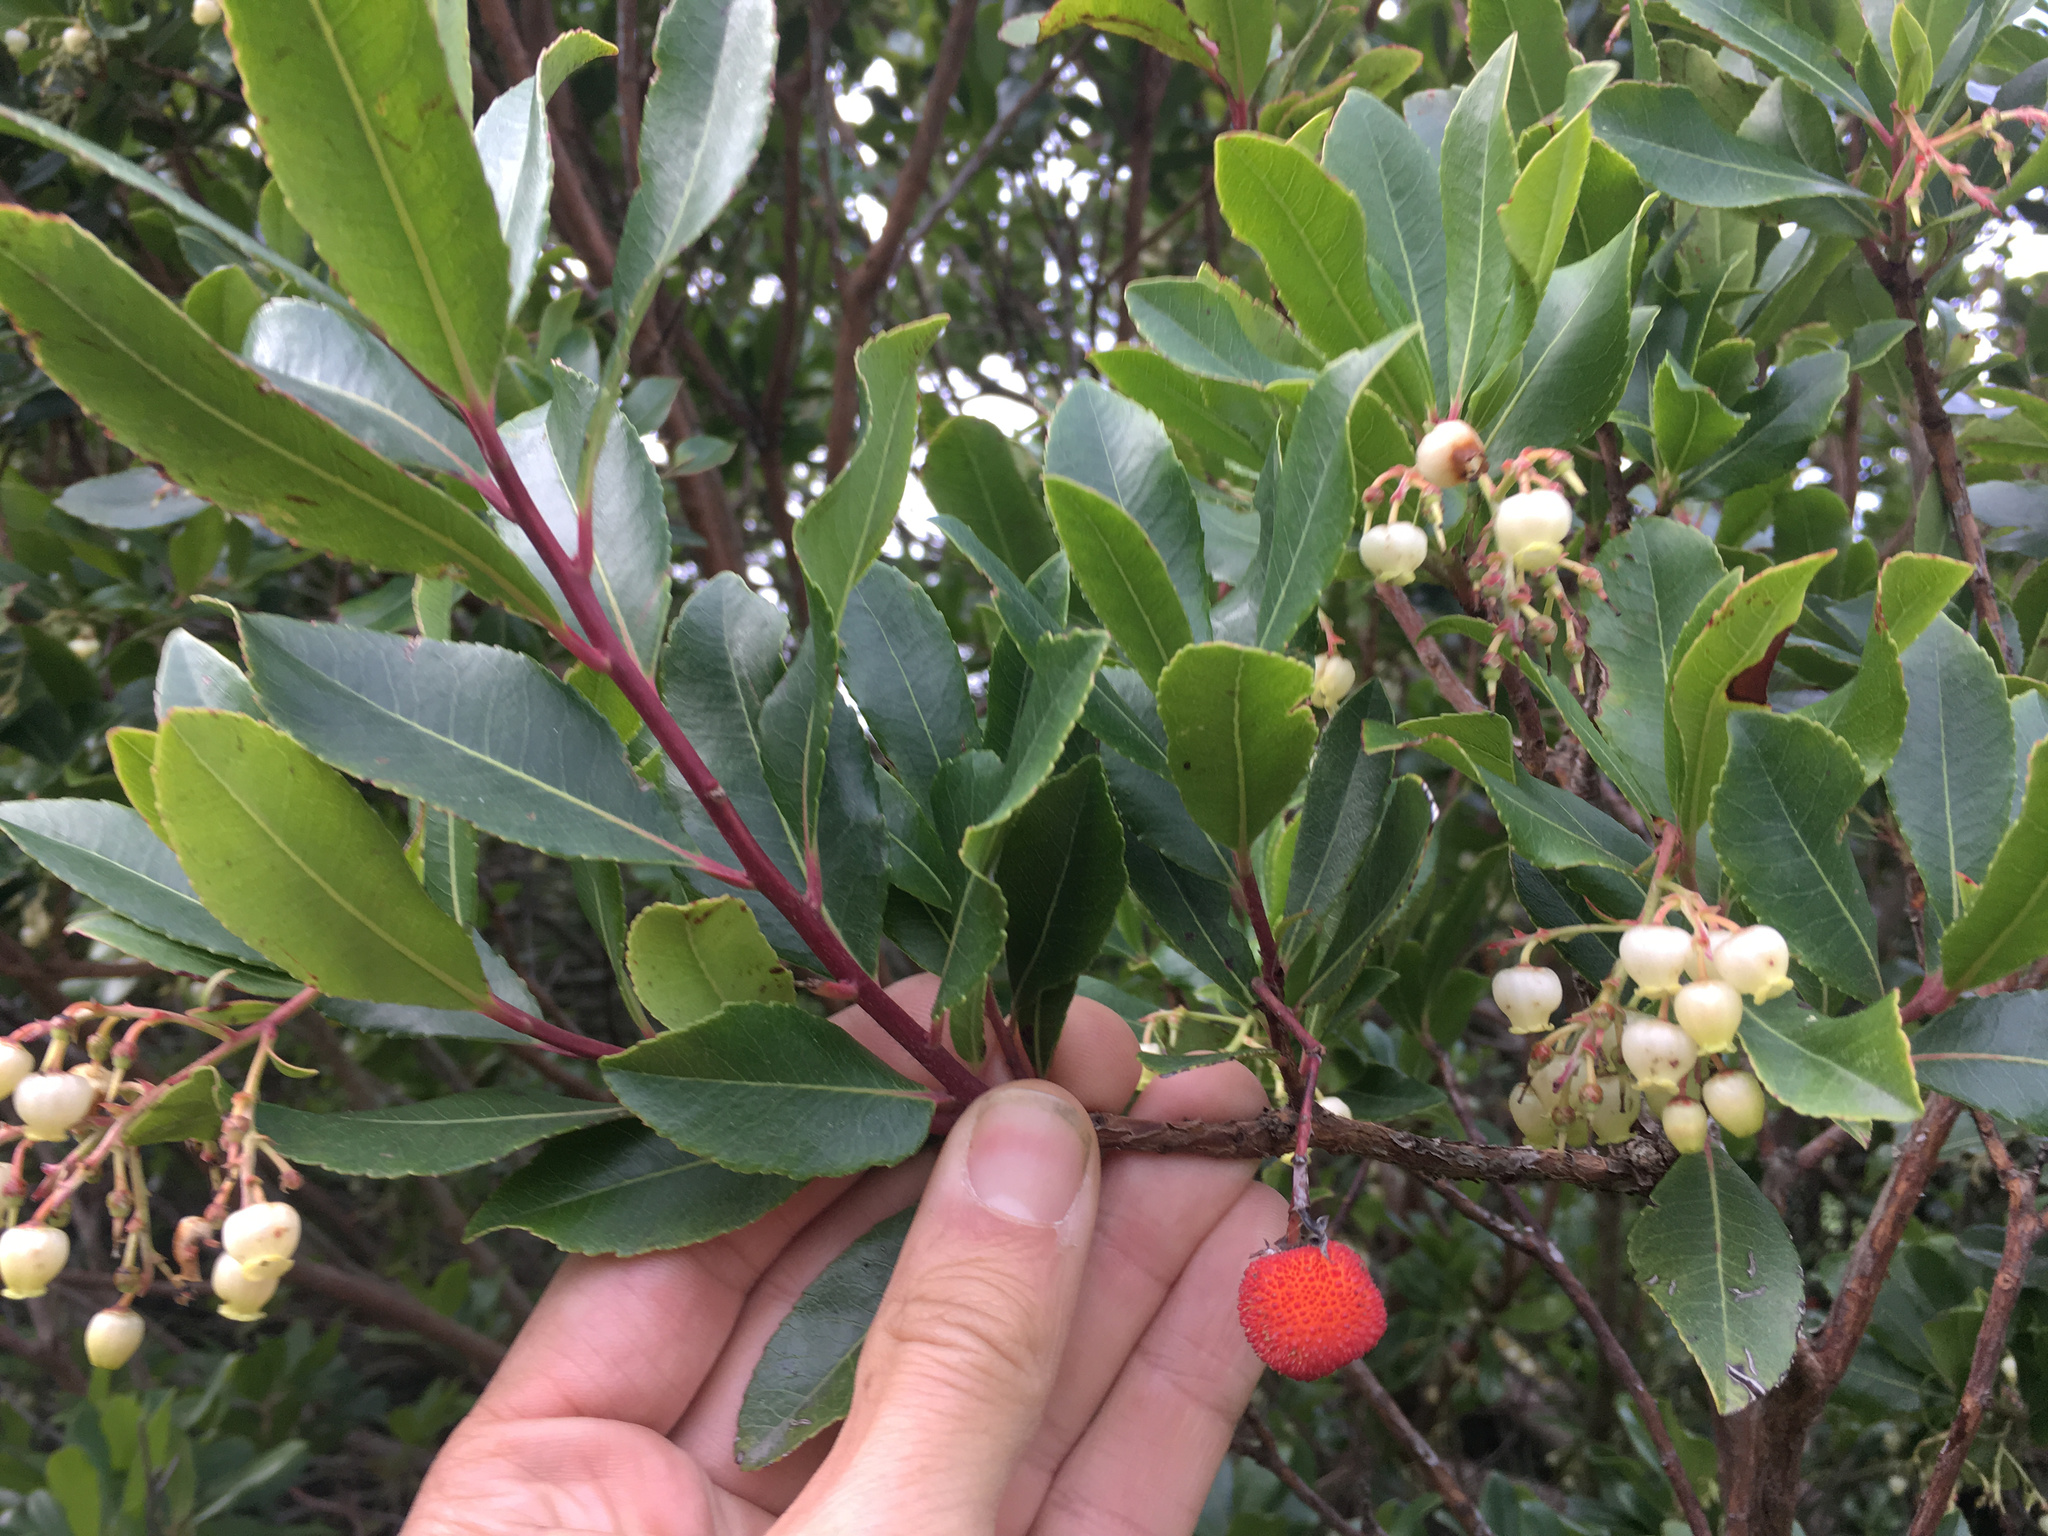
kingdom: Plantae
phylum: Tracheophyta
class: Magnoliopsida
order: Ericales
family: Ericaceae
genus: Arbutus
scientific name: Arbutus unedo
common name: Strawberry-tree
